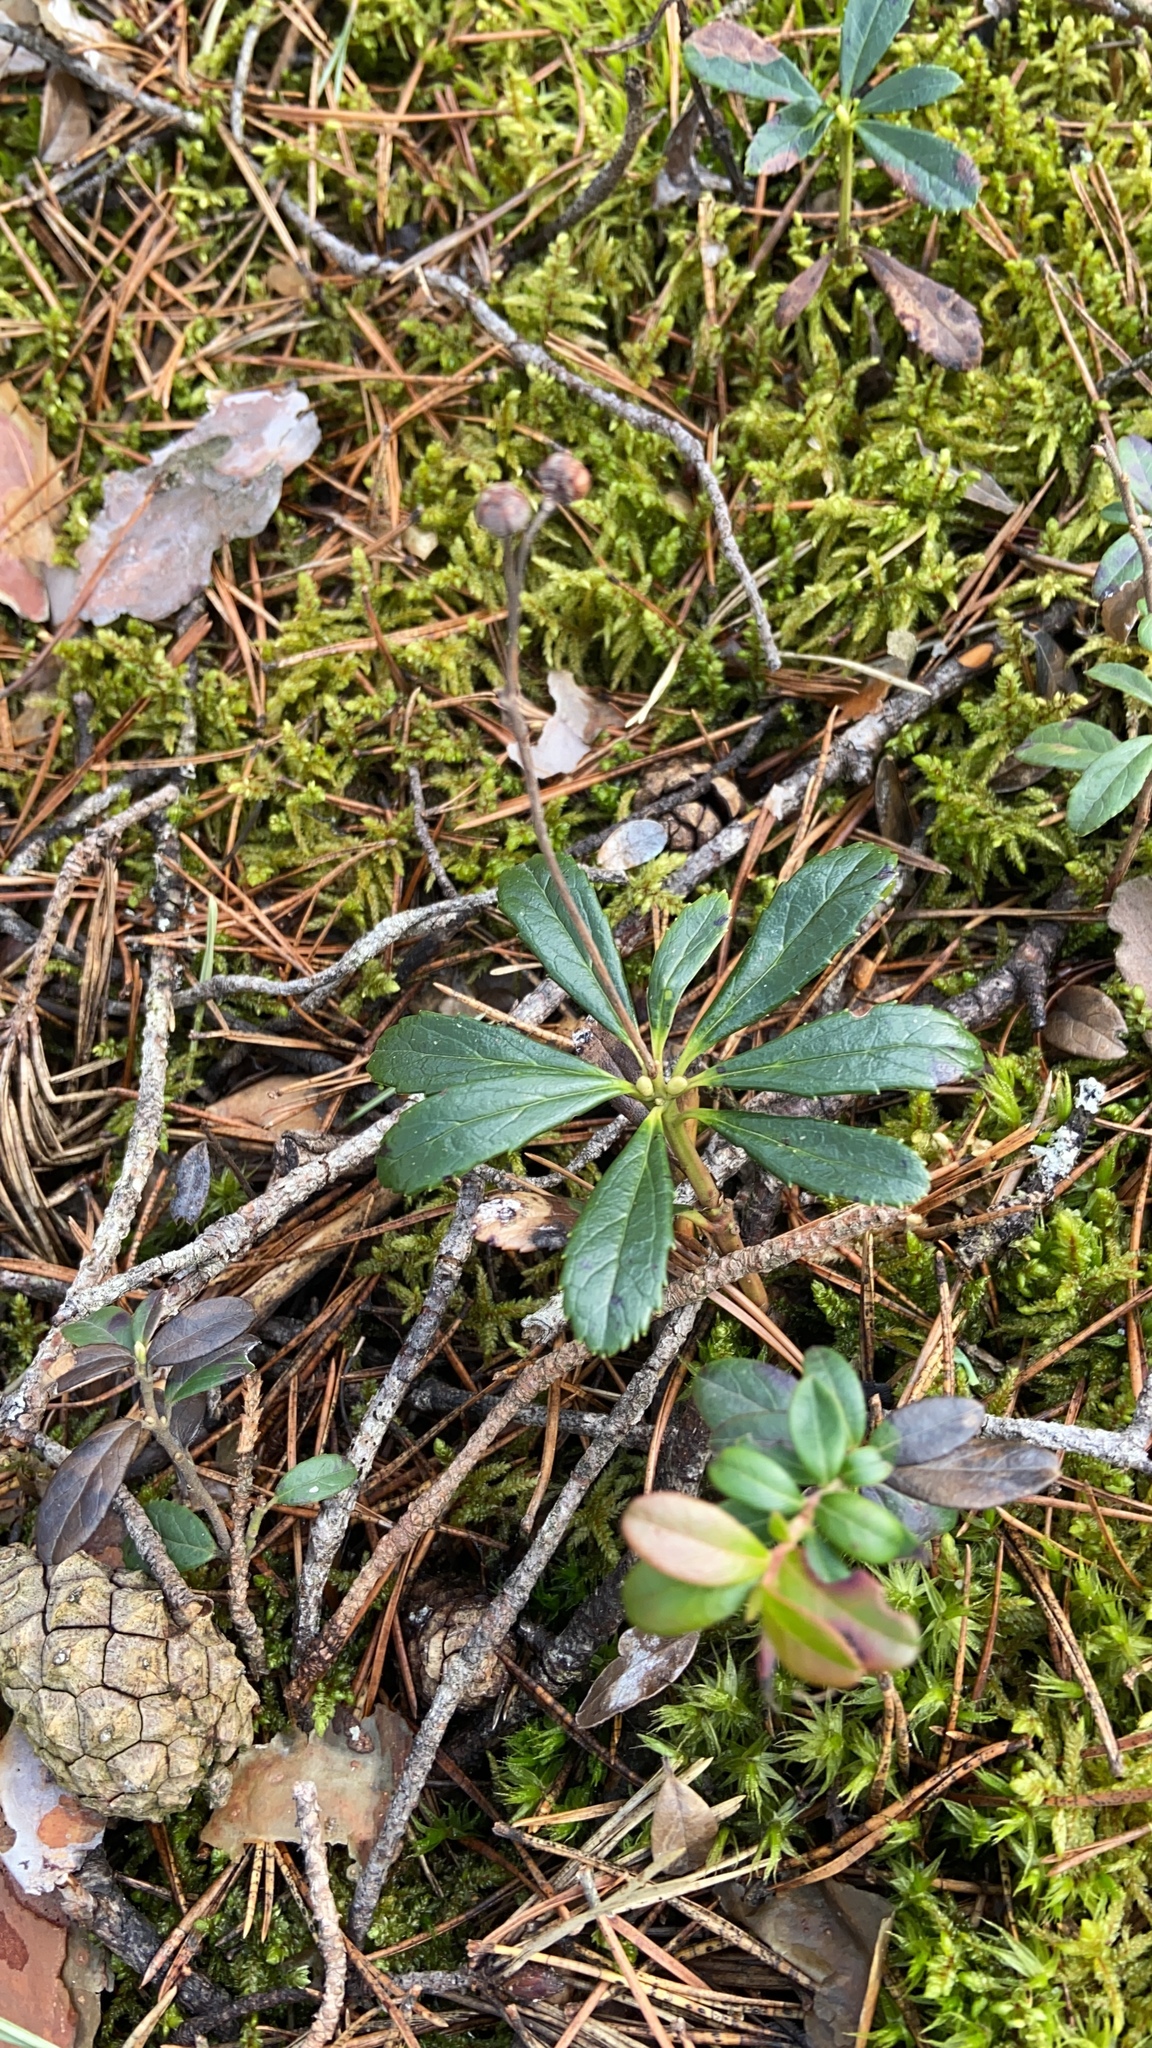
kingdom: Plantae
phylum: Tracheophyta
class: Magnoliopsida
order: Ericales
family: Ericaceae
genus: Chimaphila
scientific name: Chimaphila umbellata
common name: Pipsissewa
